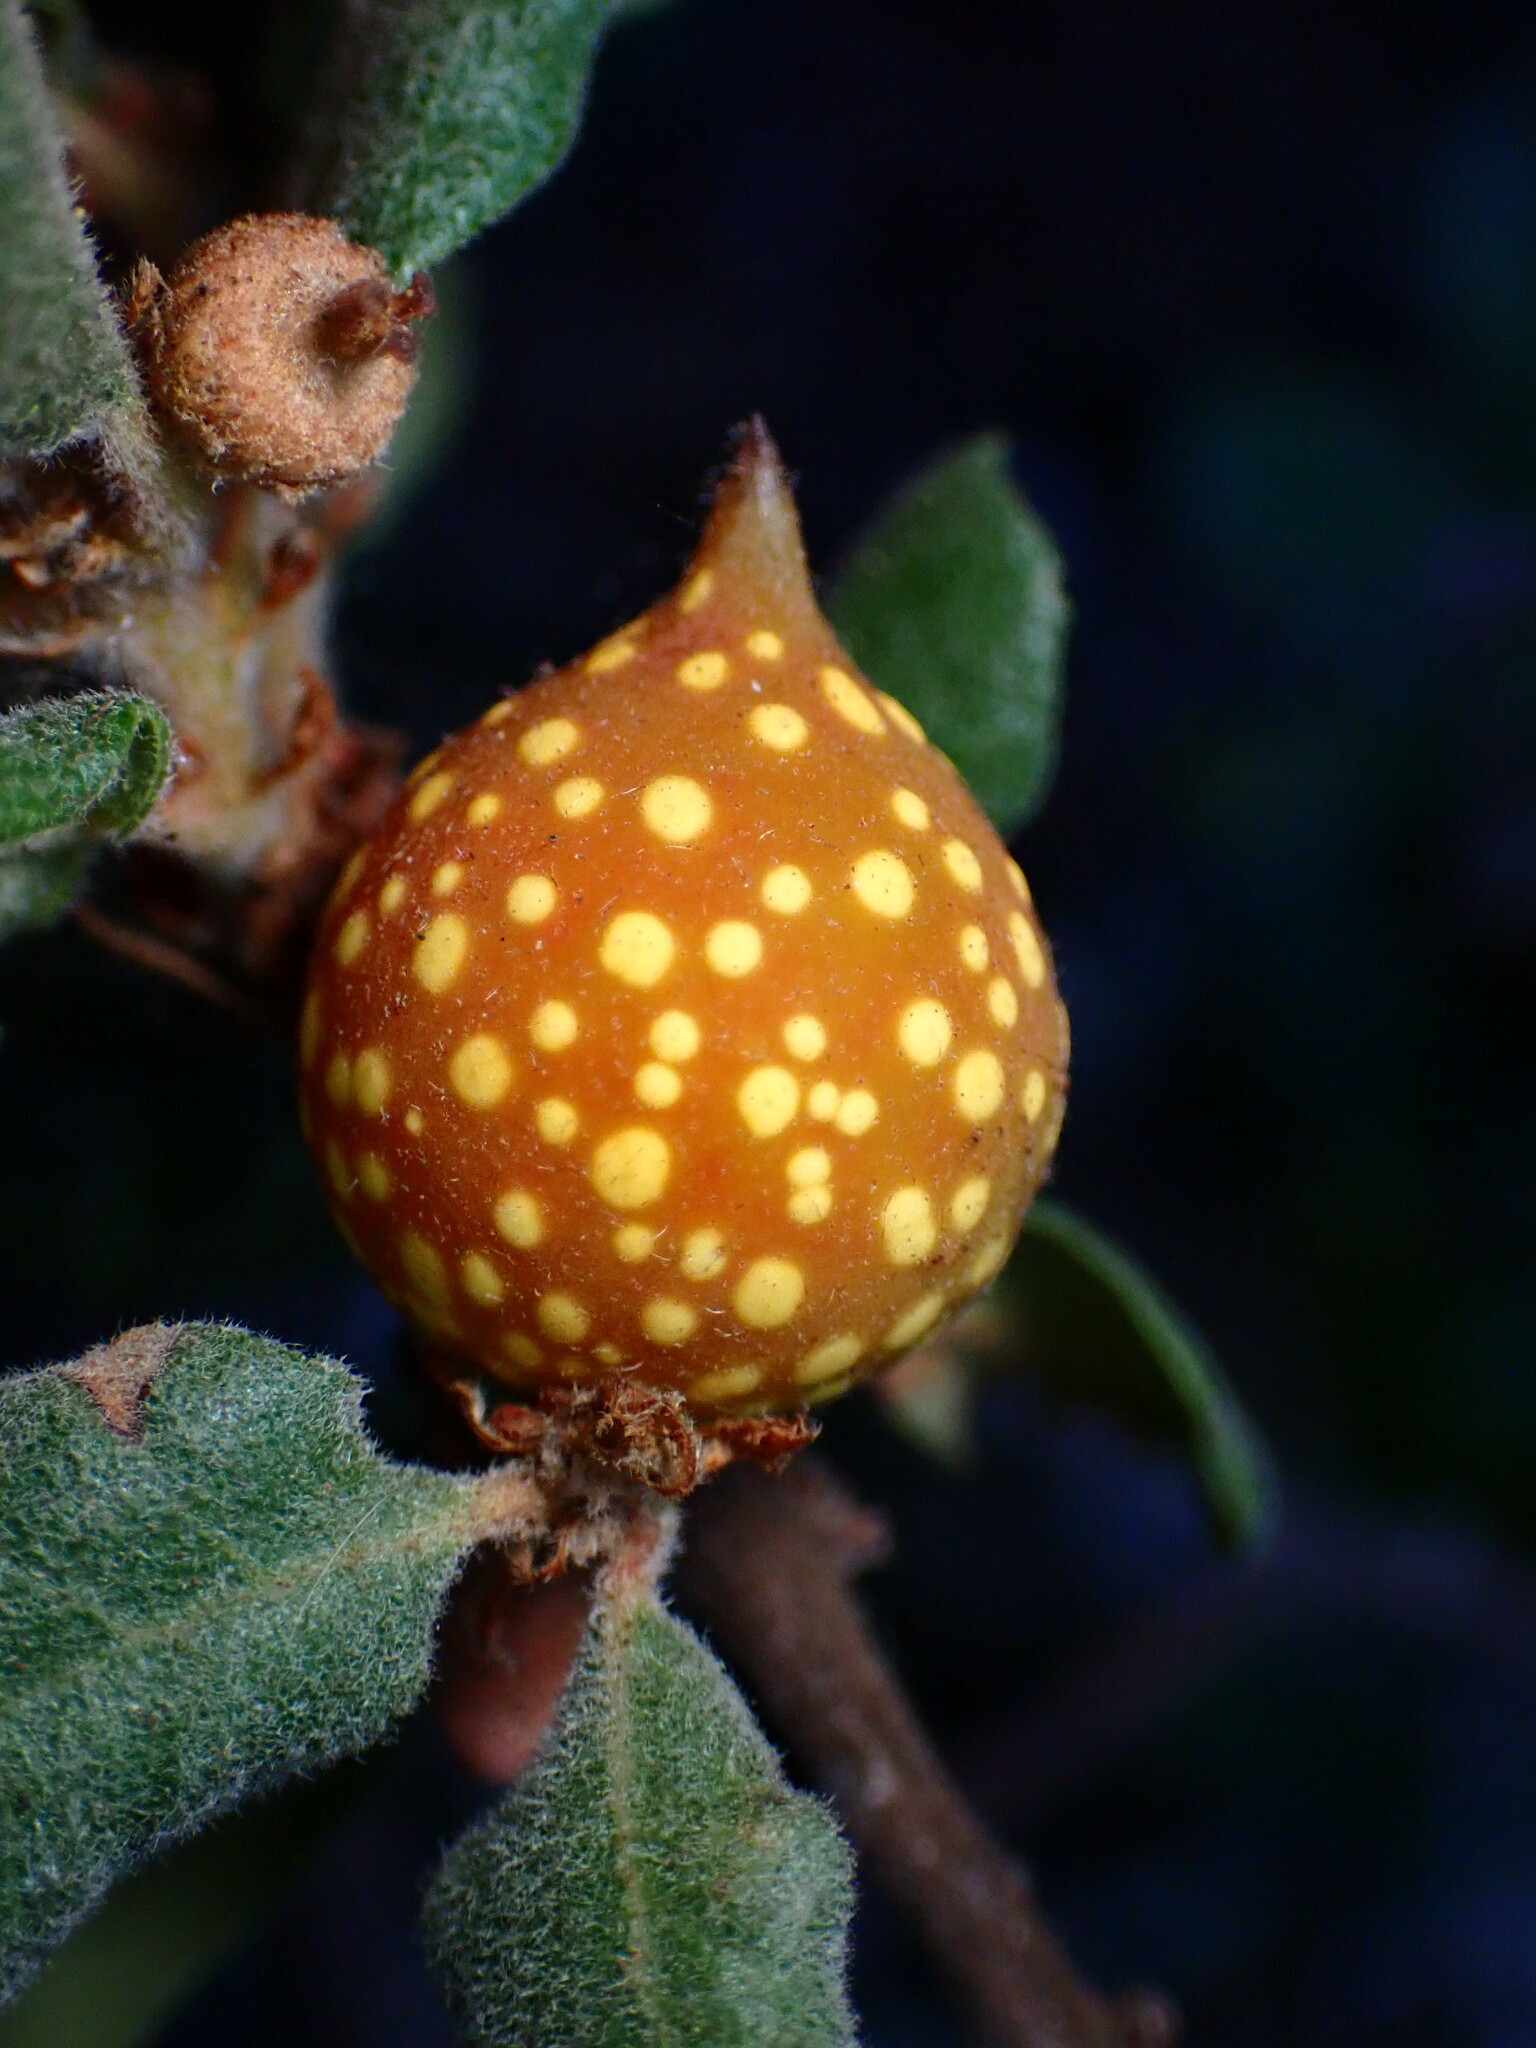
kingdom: Animalia
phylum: Arthropoda
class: Insecta
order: Hymenoptera
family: Cynipidae
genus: Burnettweldia
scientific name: Burnettweldia
